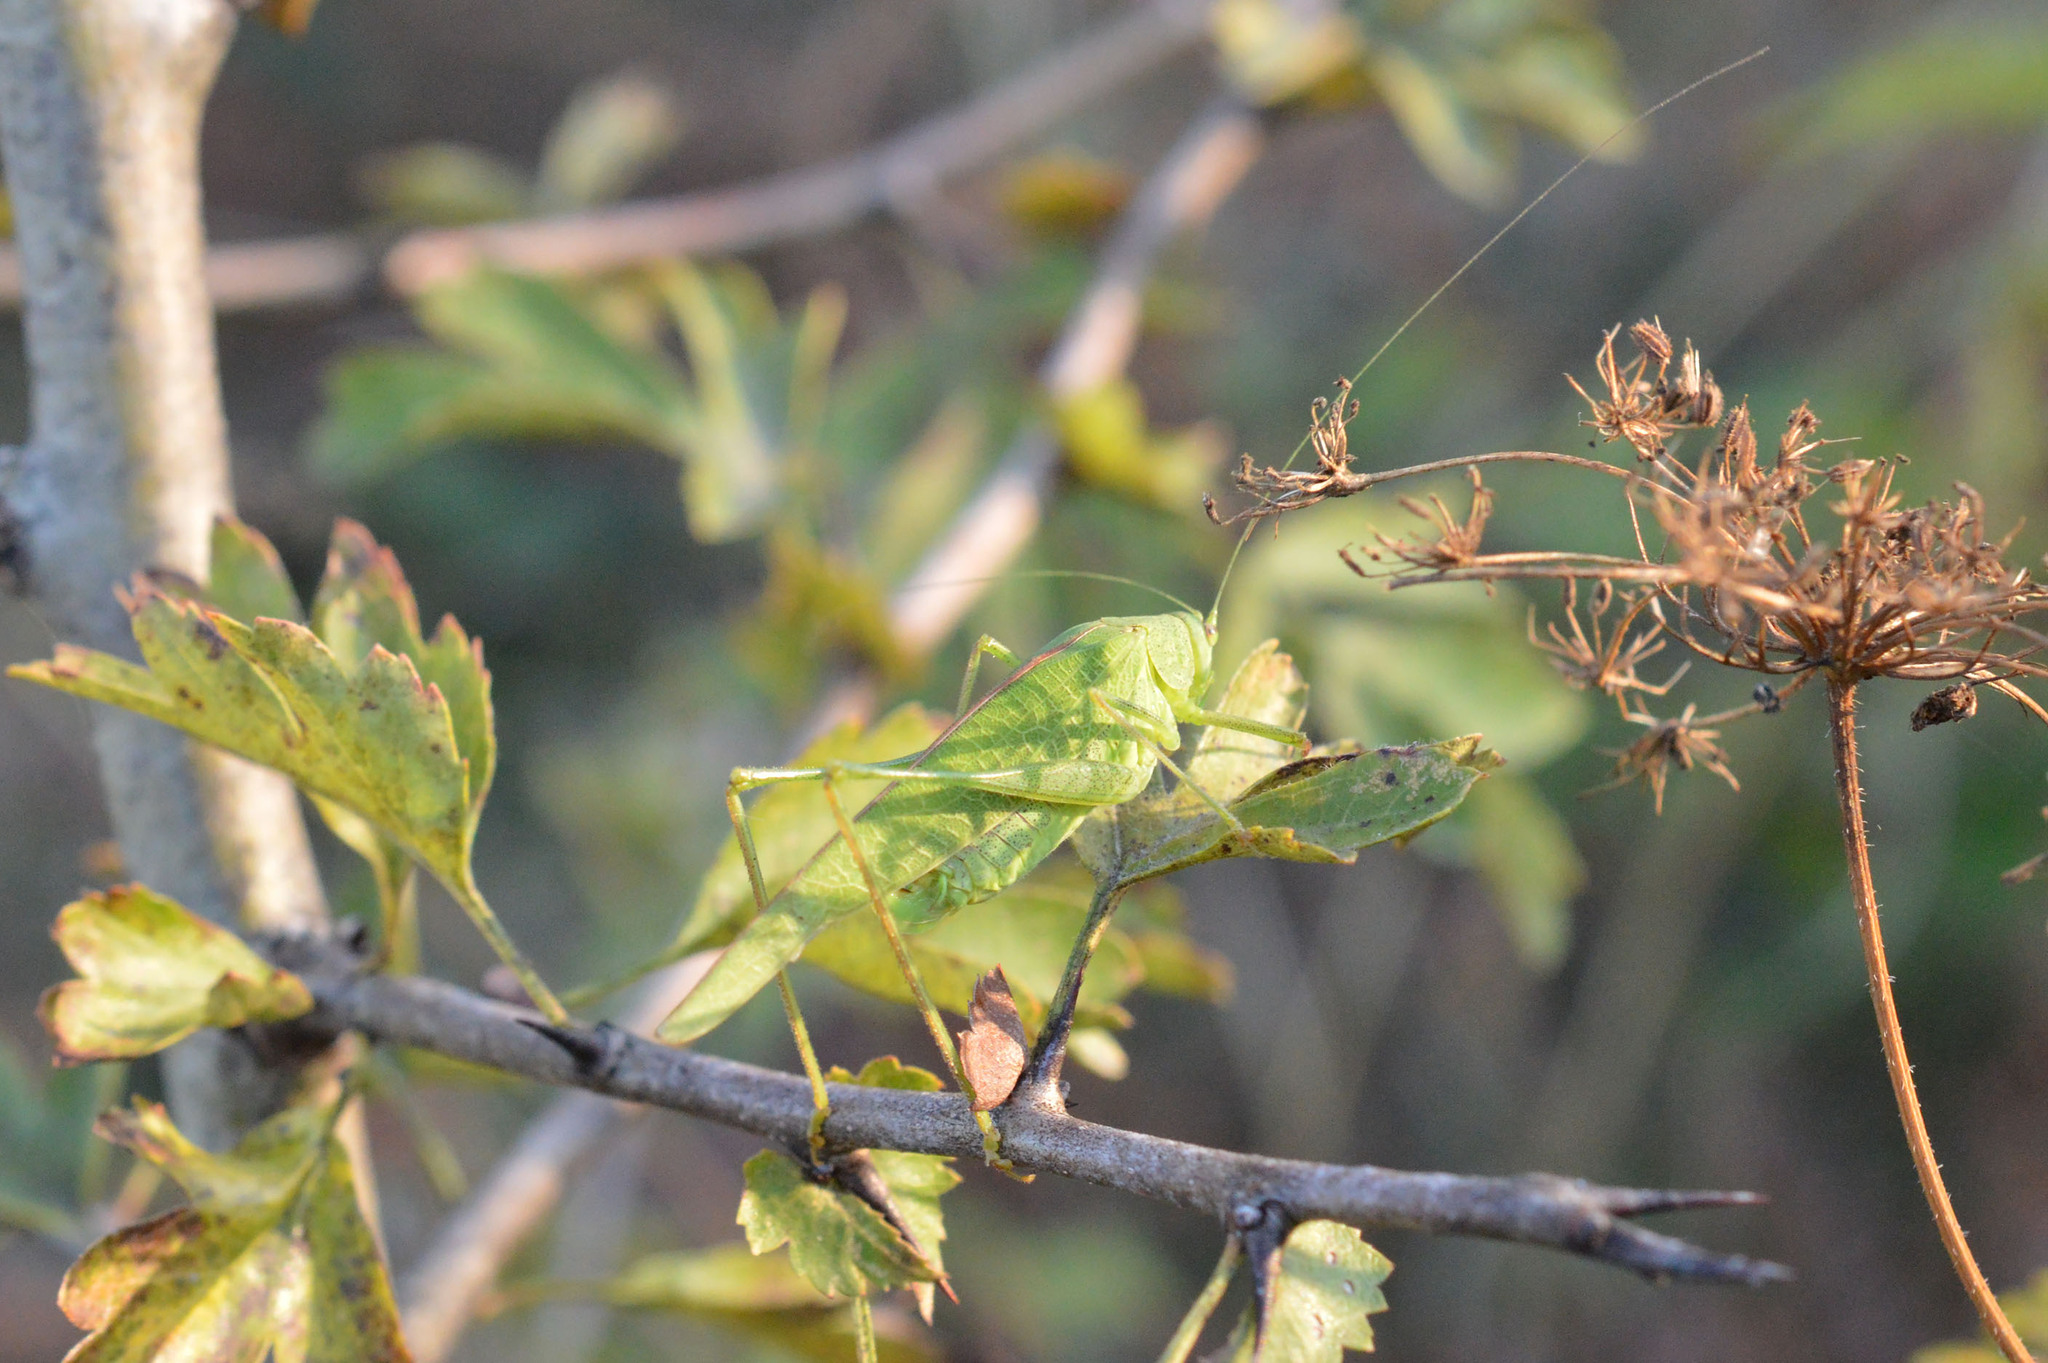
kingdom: Animalia
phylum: Arthropoda
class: Insecta
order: Orthoptera
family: Tettigoniidae
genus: Phaneroptera
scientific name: Phaneroptera nana
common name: Southern sickle bush-cricket
